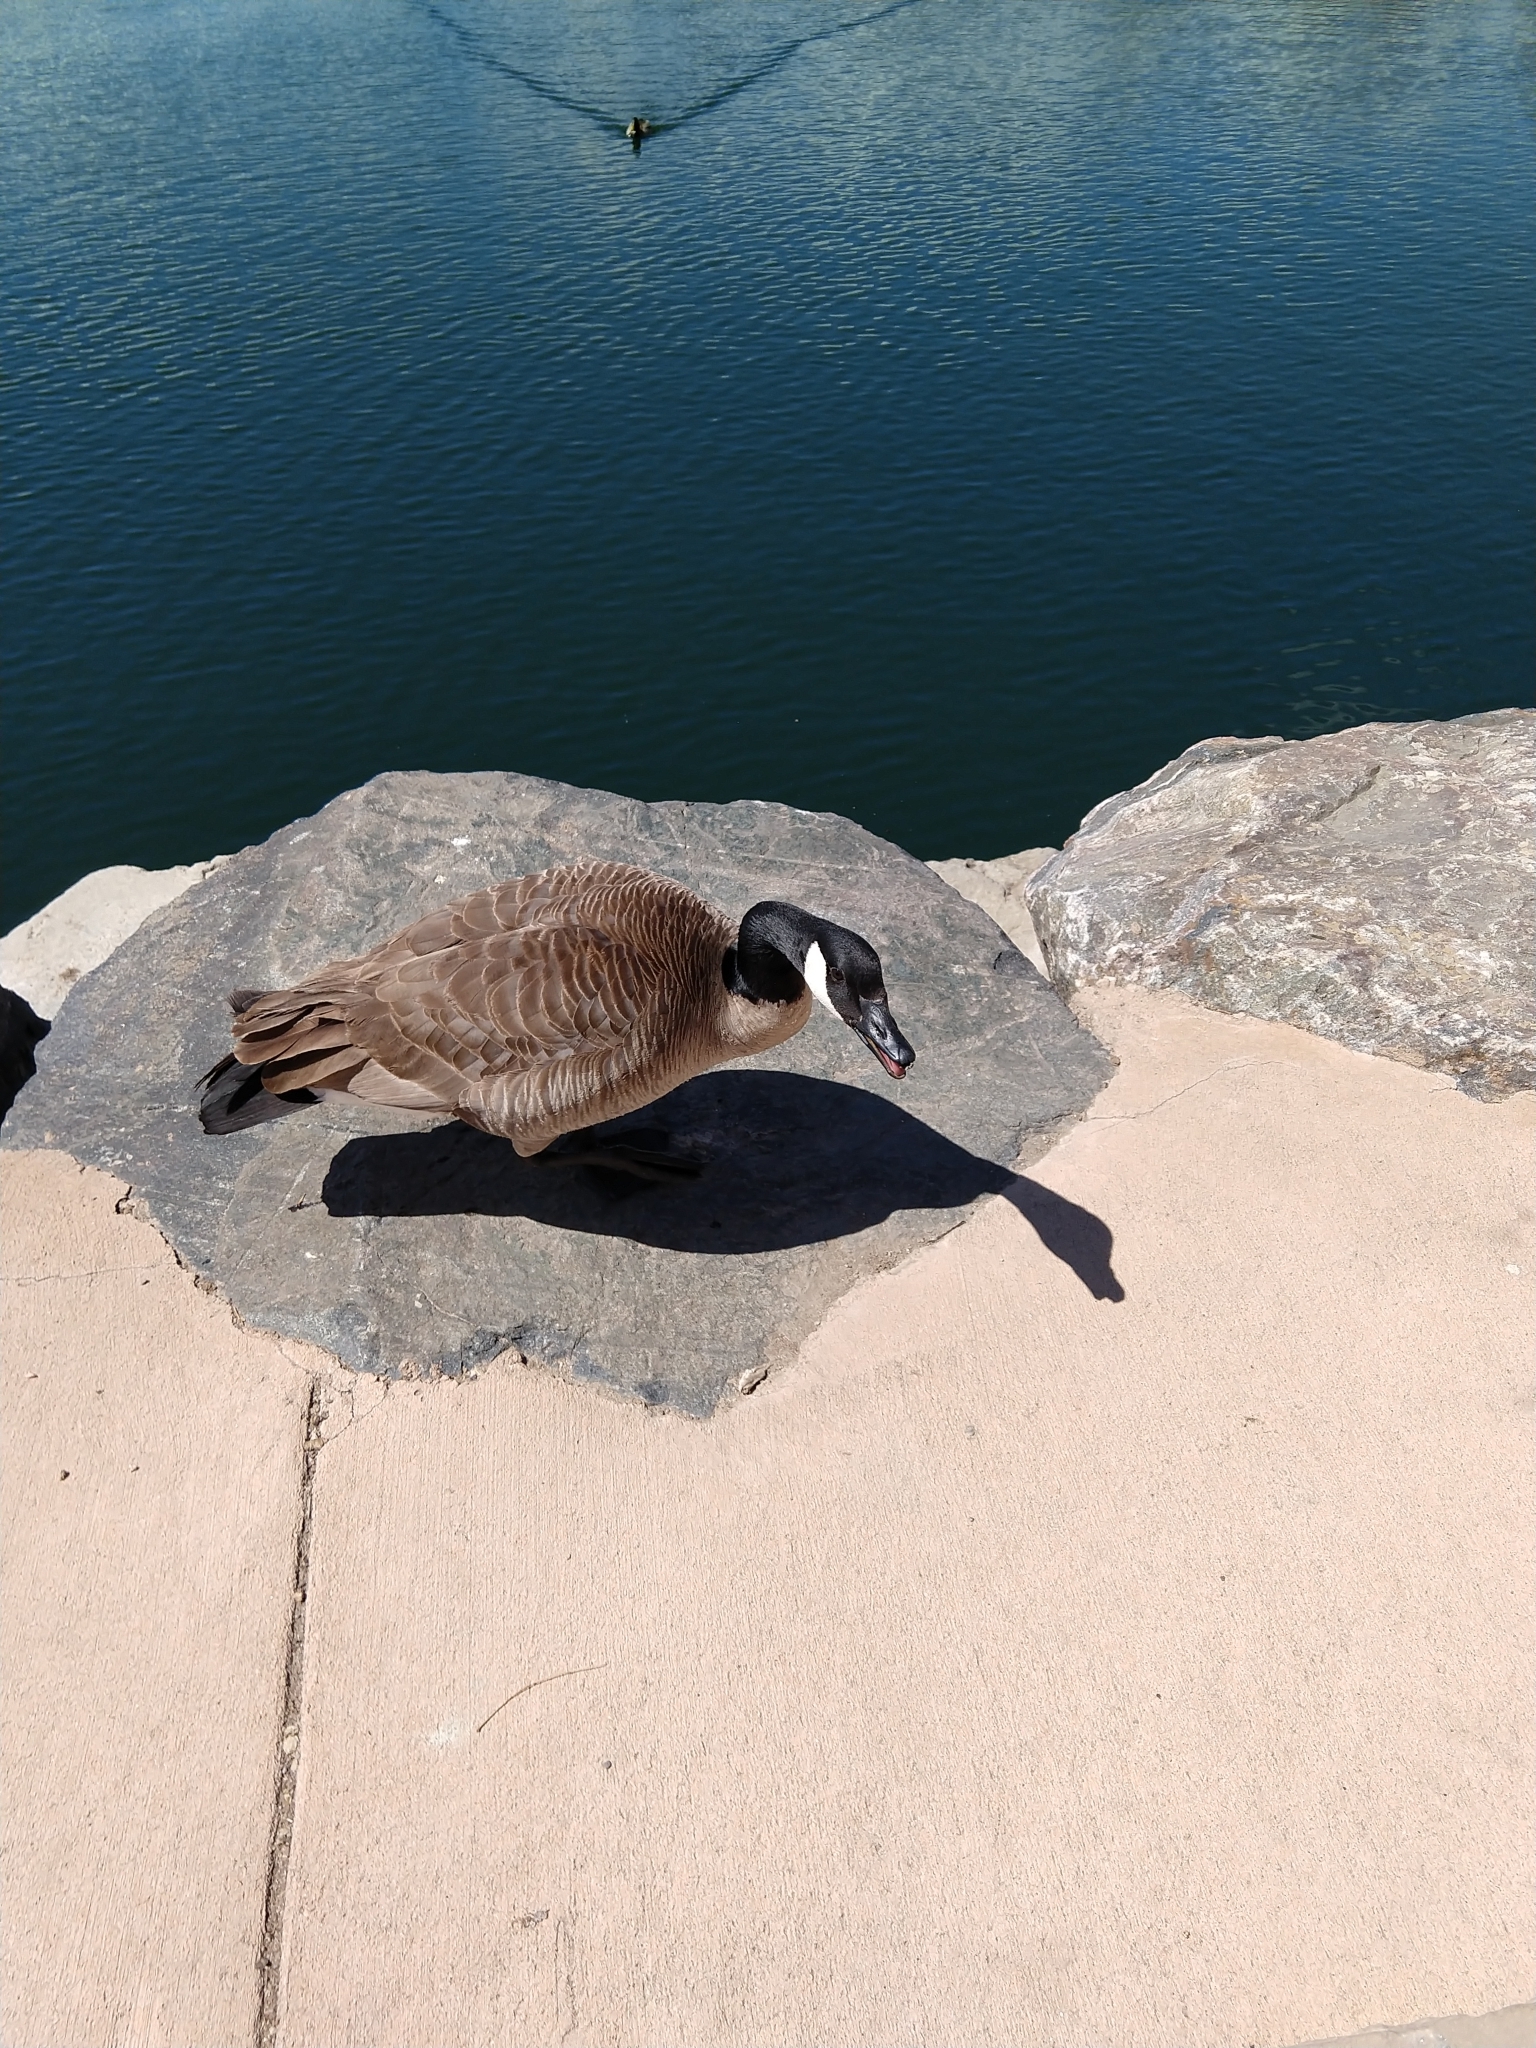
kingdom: Animalia
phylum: Chordata
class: Aves
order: Anseriformes
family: Anatidae
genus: Branta
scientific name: Branta canadensis
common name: Canada goose
